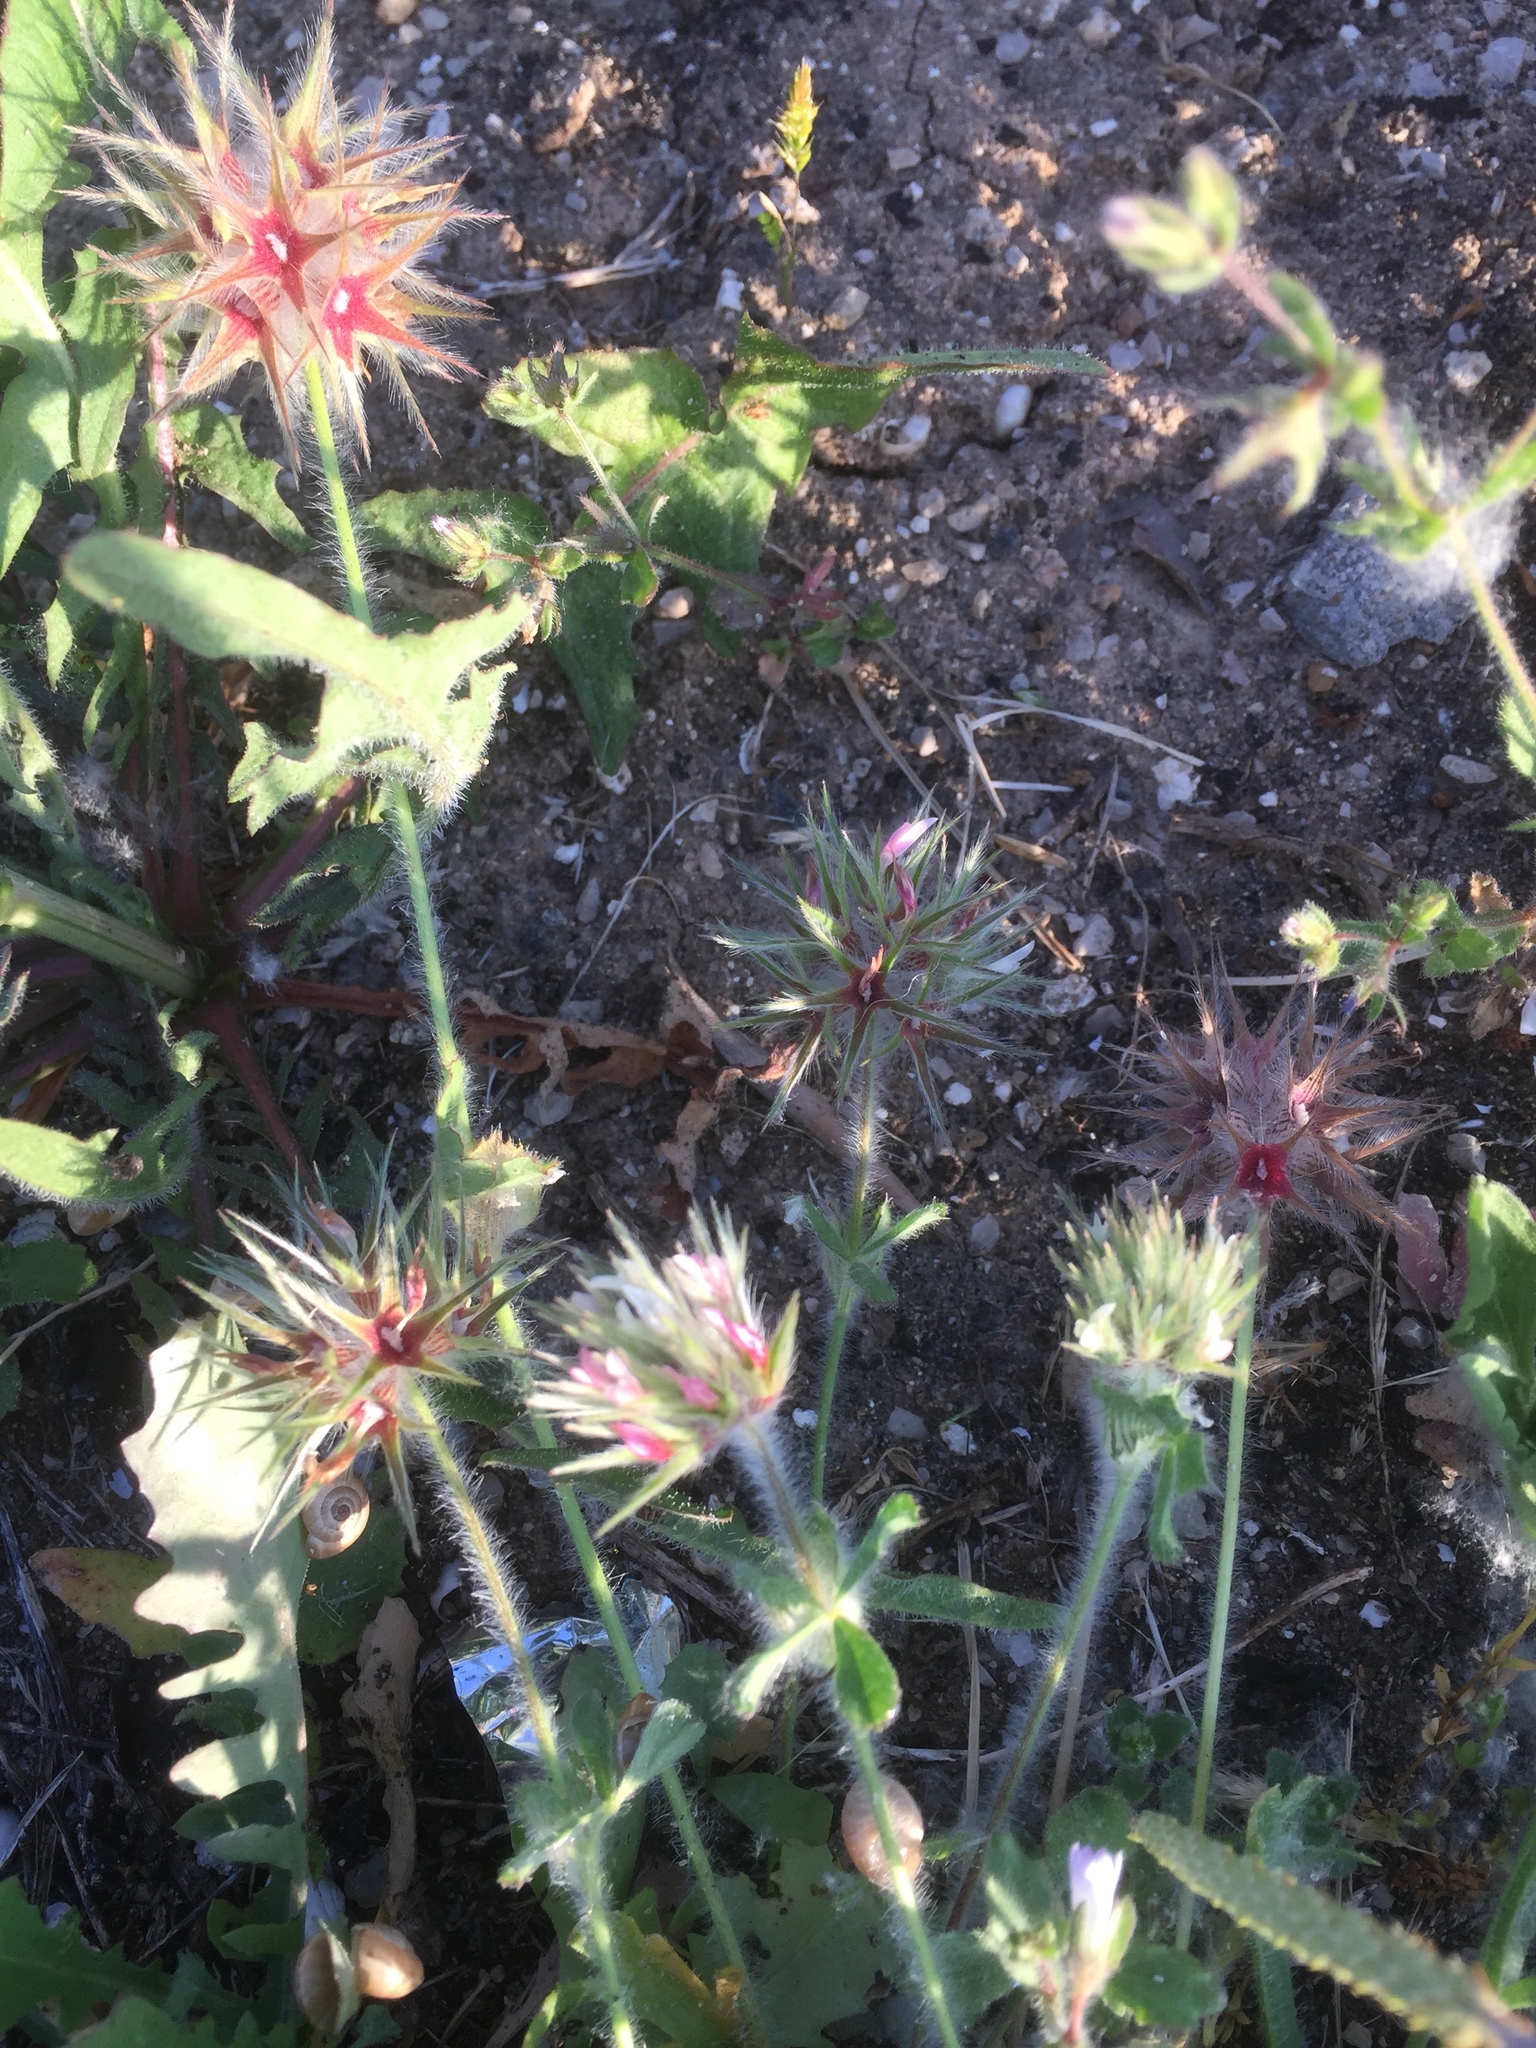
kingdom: Plantae
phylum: Tracheophyta
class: Magnoliopsida
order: Fabales
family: Fabaceae
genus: Trifolium
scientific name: Trifolium stellatum
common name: Starry clover
